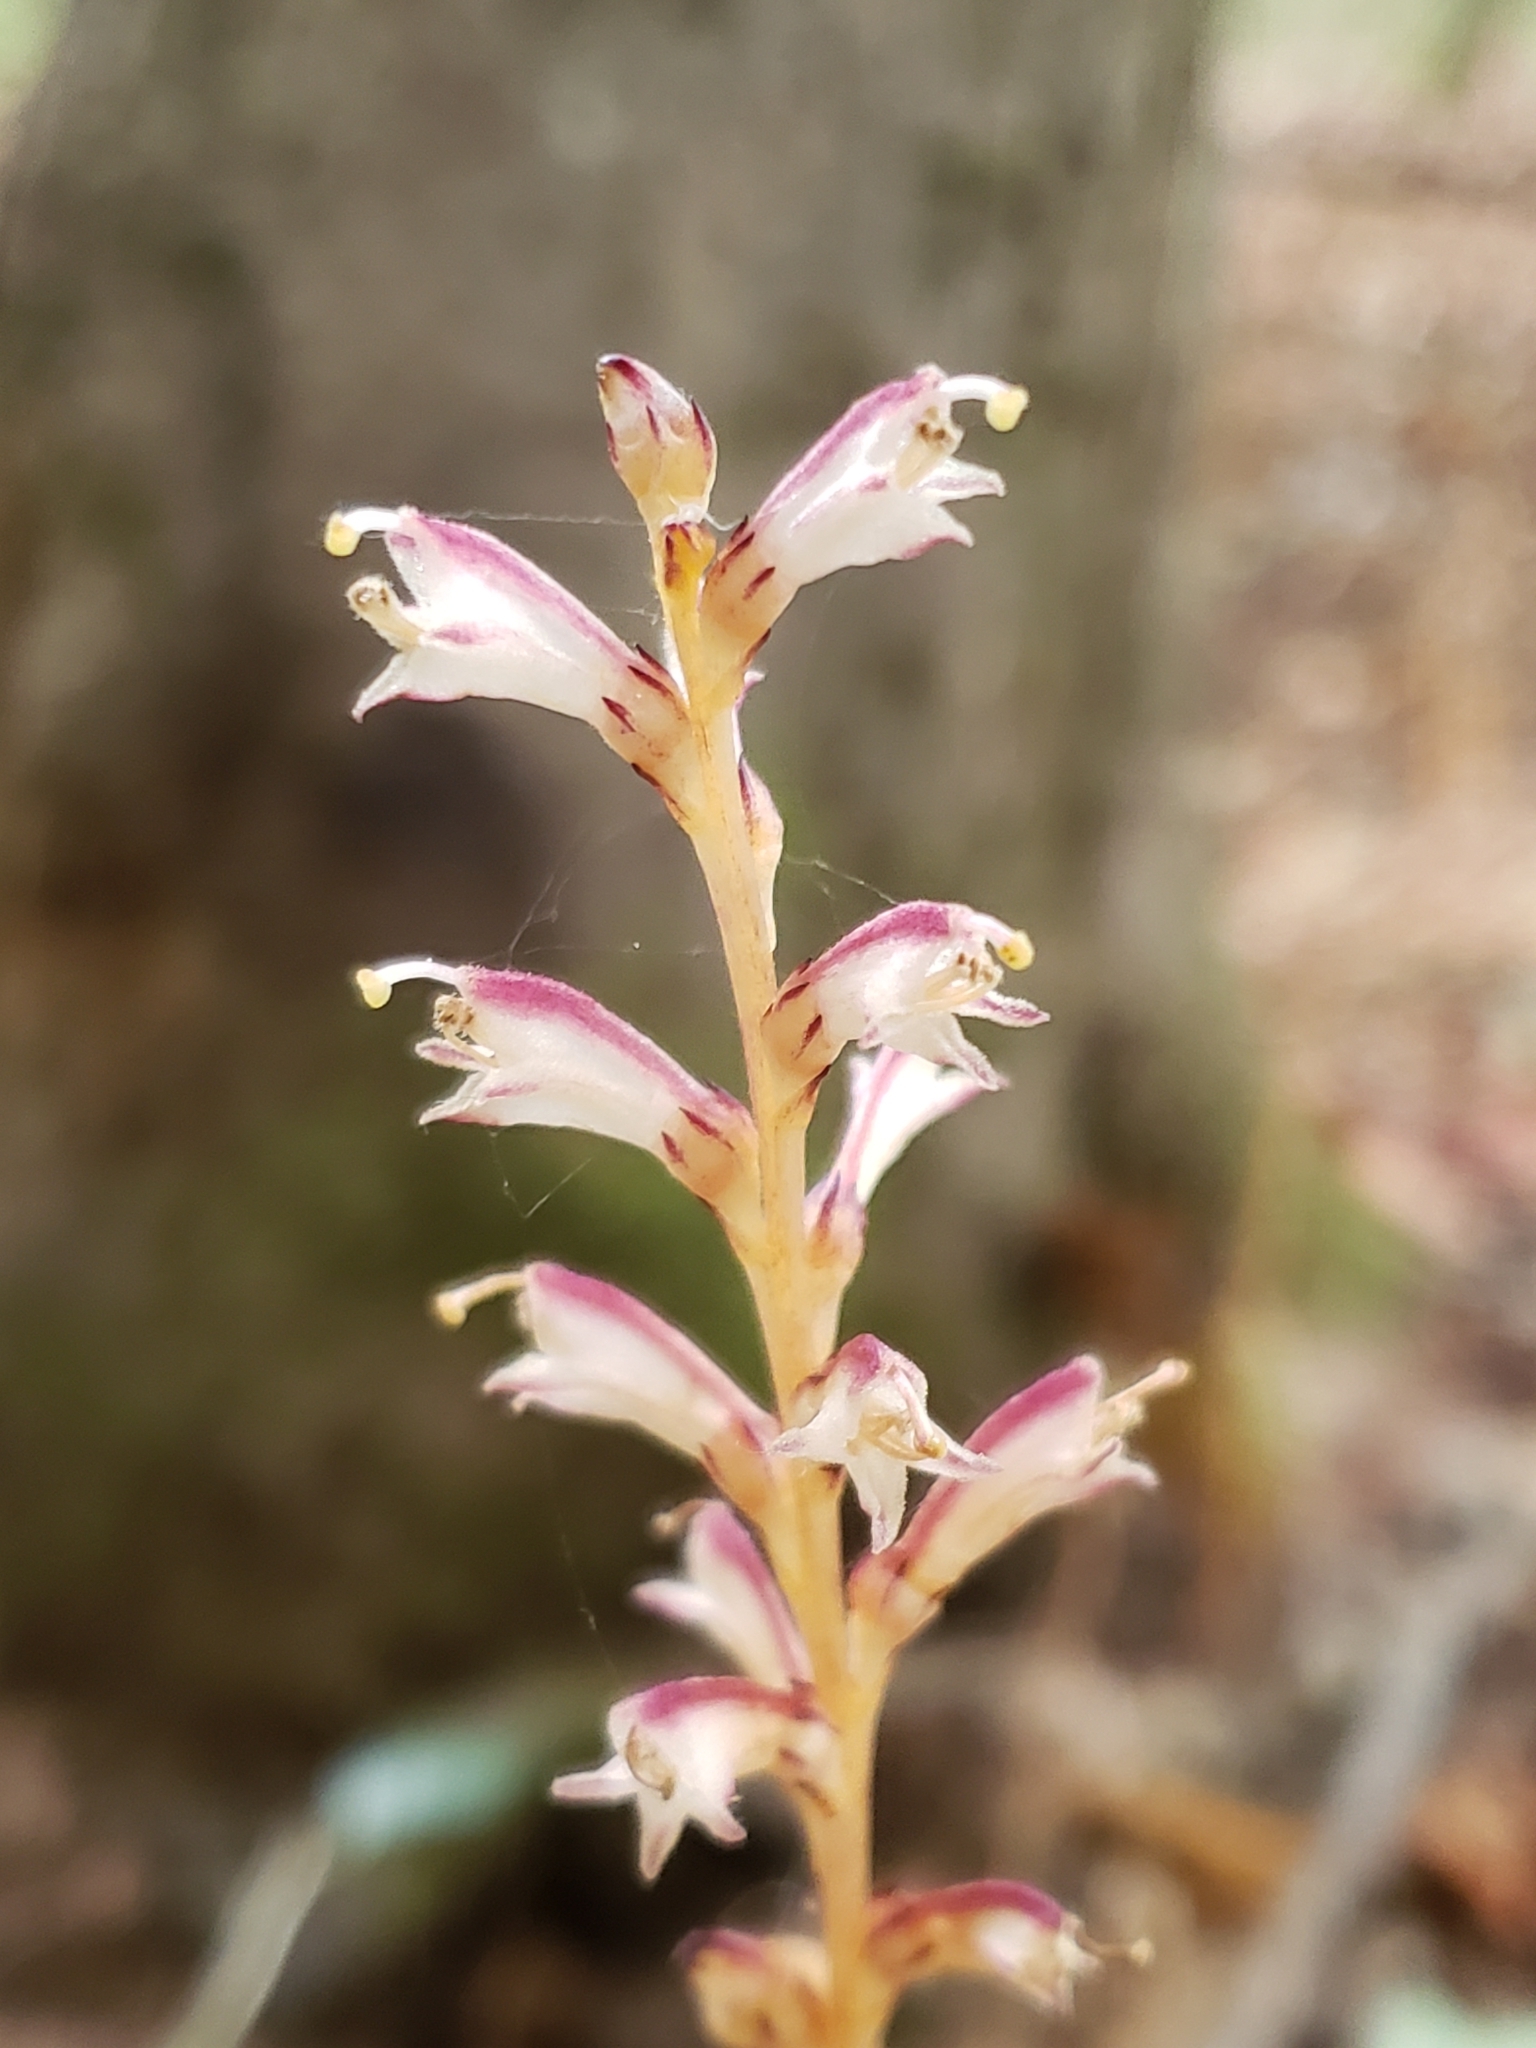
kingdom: Plantae
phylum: Tracheophyta
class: Magnoliopsida
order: Lamiales
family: Orobanchaceae
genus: Epifagus
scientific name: Epifagus virginiana
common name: Beechdrops
